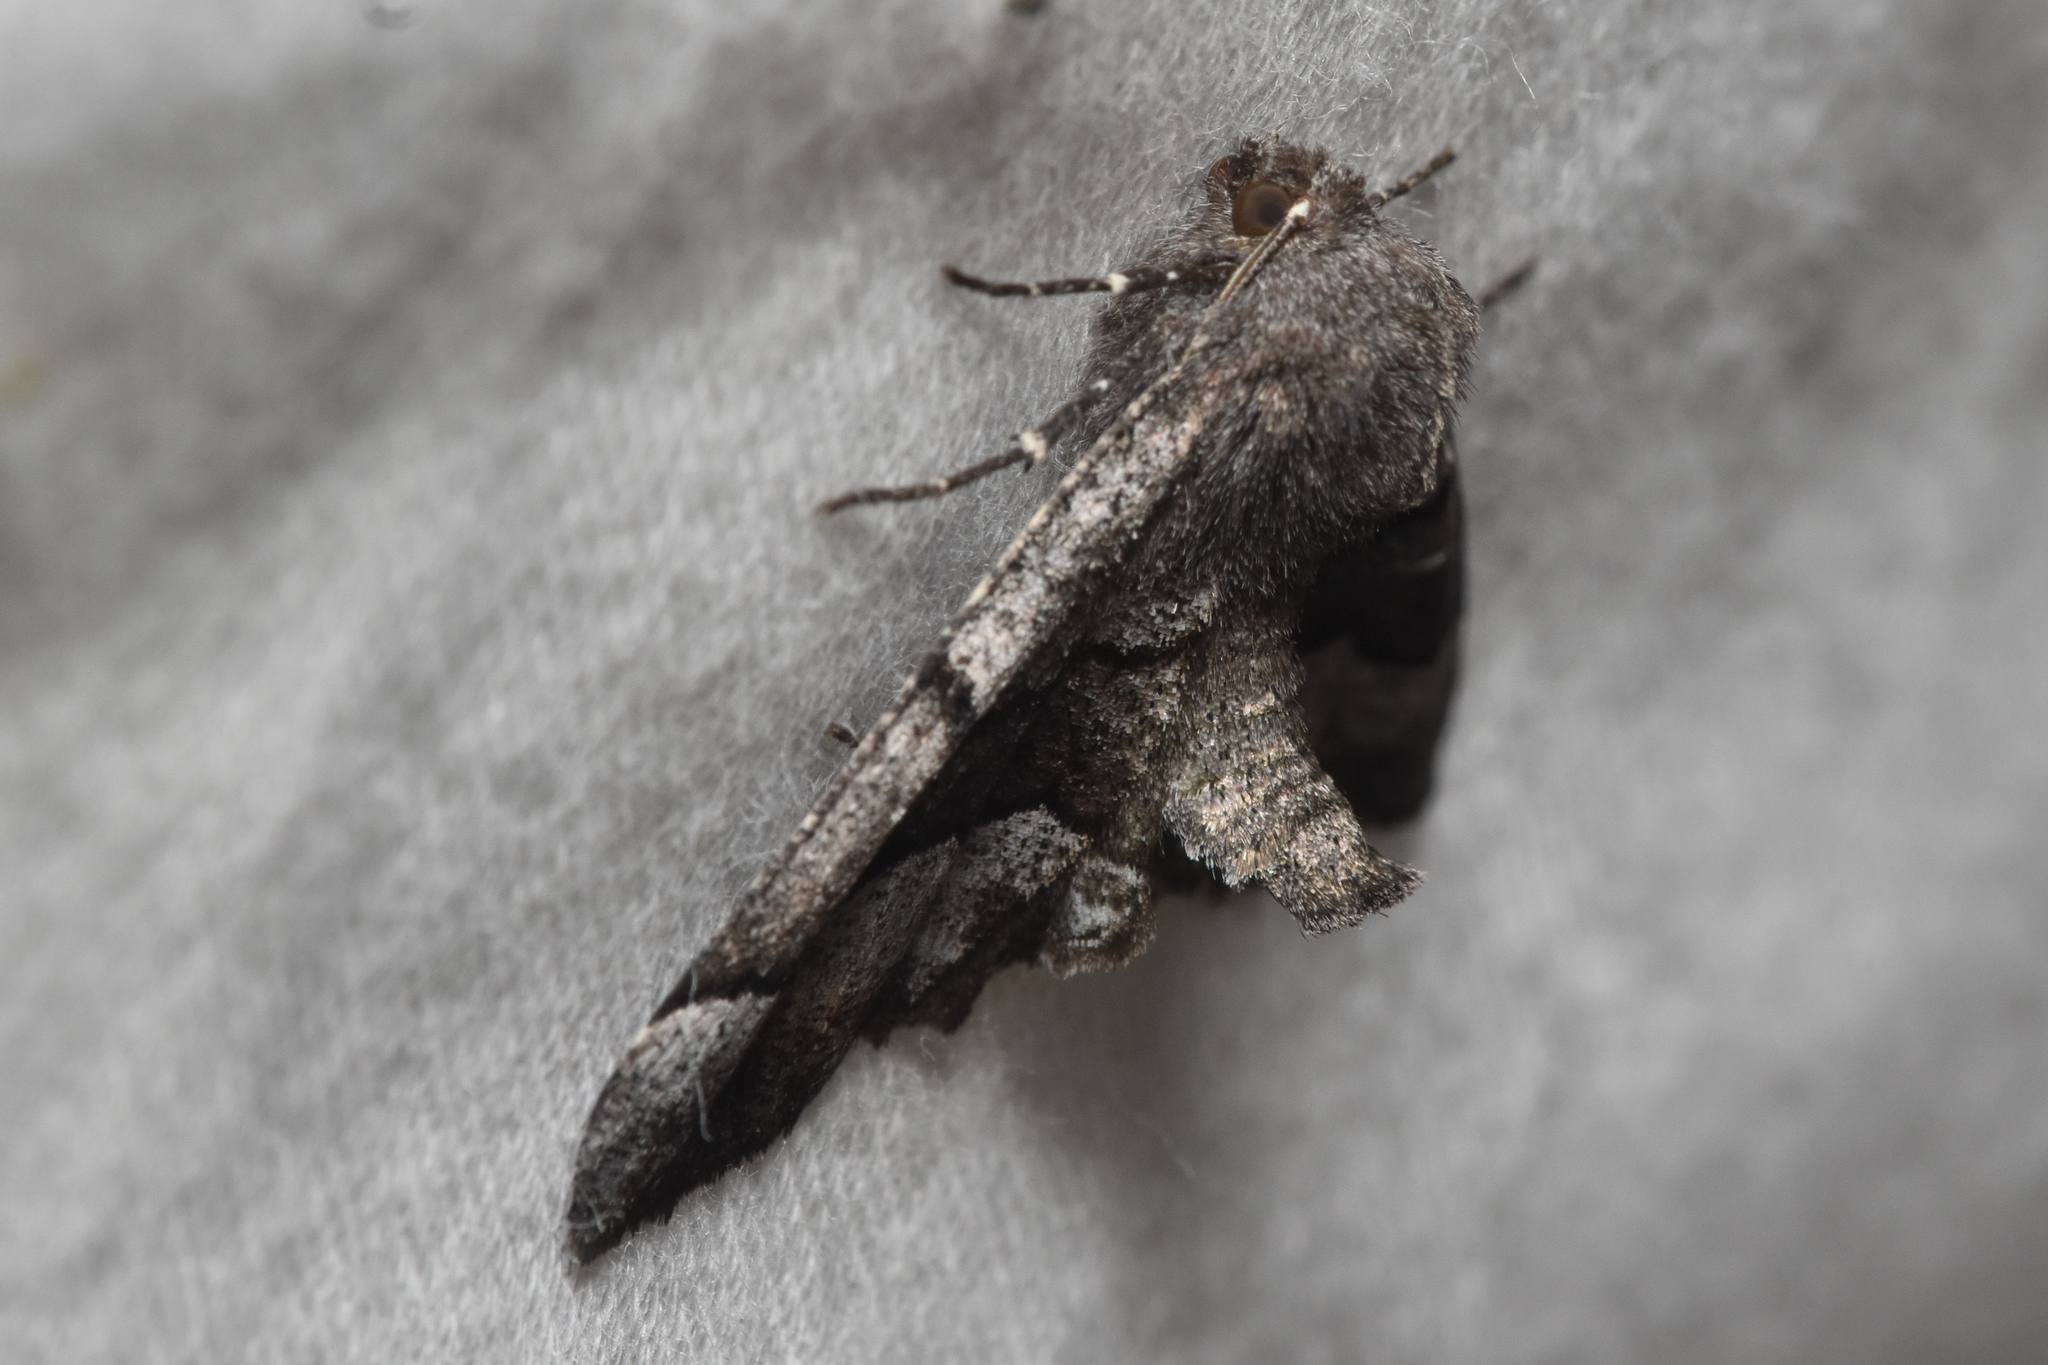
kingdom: Animalia
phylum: Arthropoda
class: Insecta
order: Lepidoptera
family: Geometridae
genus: Pero
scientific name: Pero behrensaria
